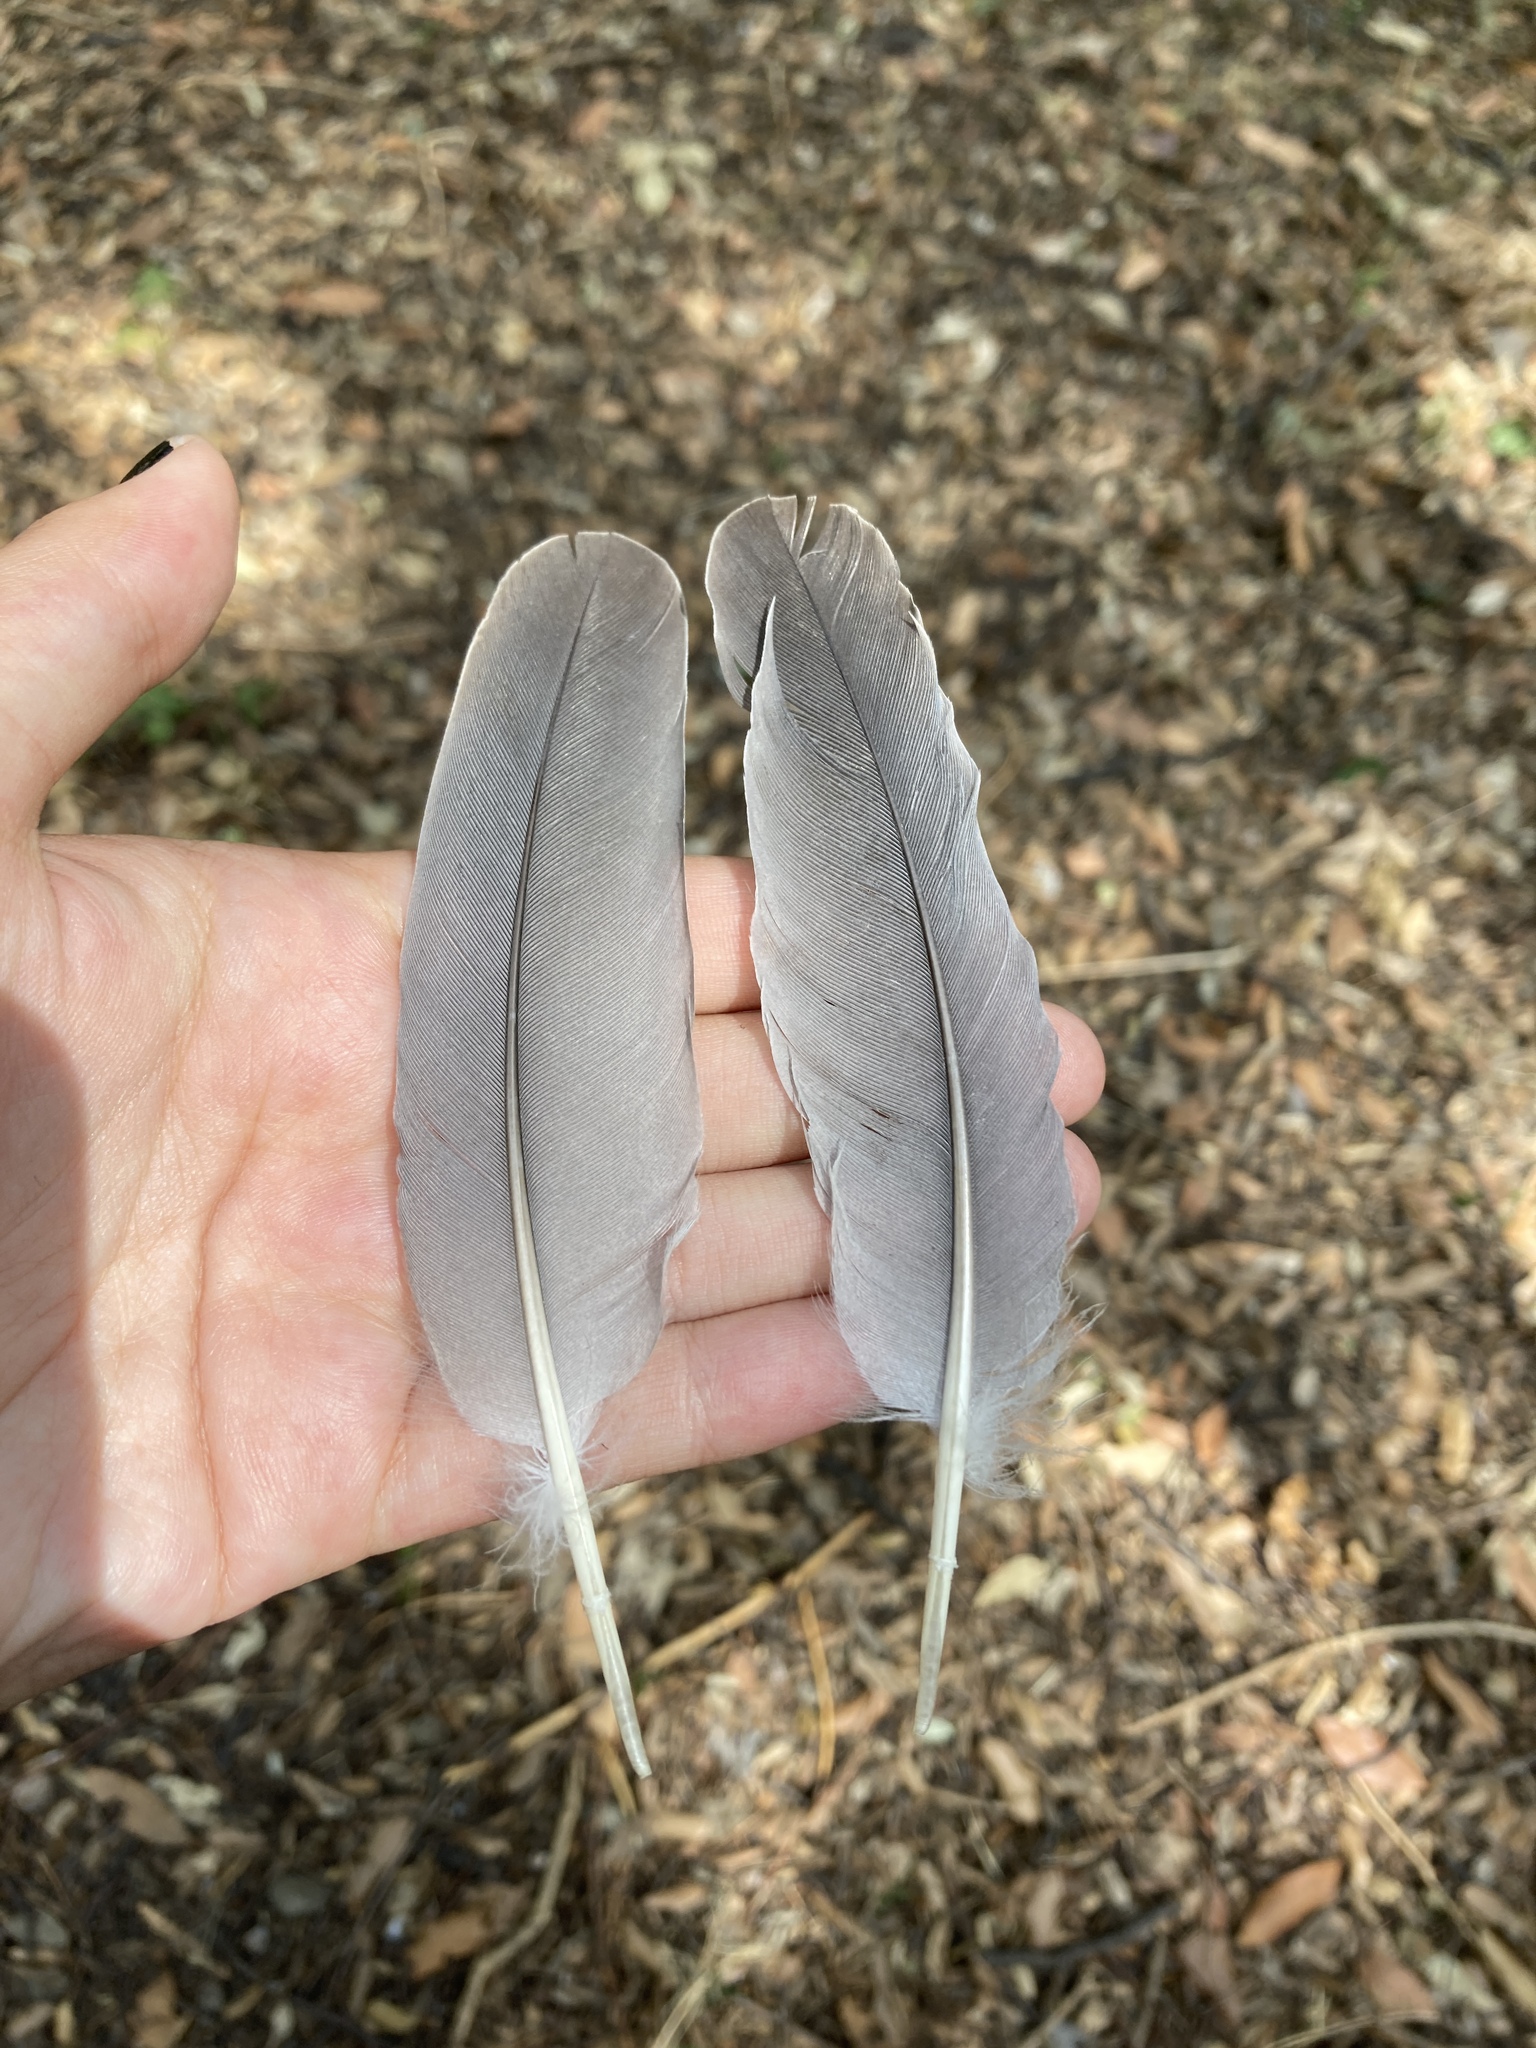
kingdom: Animalia
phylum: Chordata
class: Aves
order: Columbiformes
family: Columbidae
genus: Columba
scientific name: Columba palumbus
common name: Common wood pigeon
